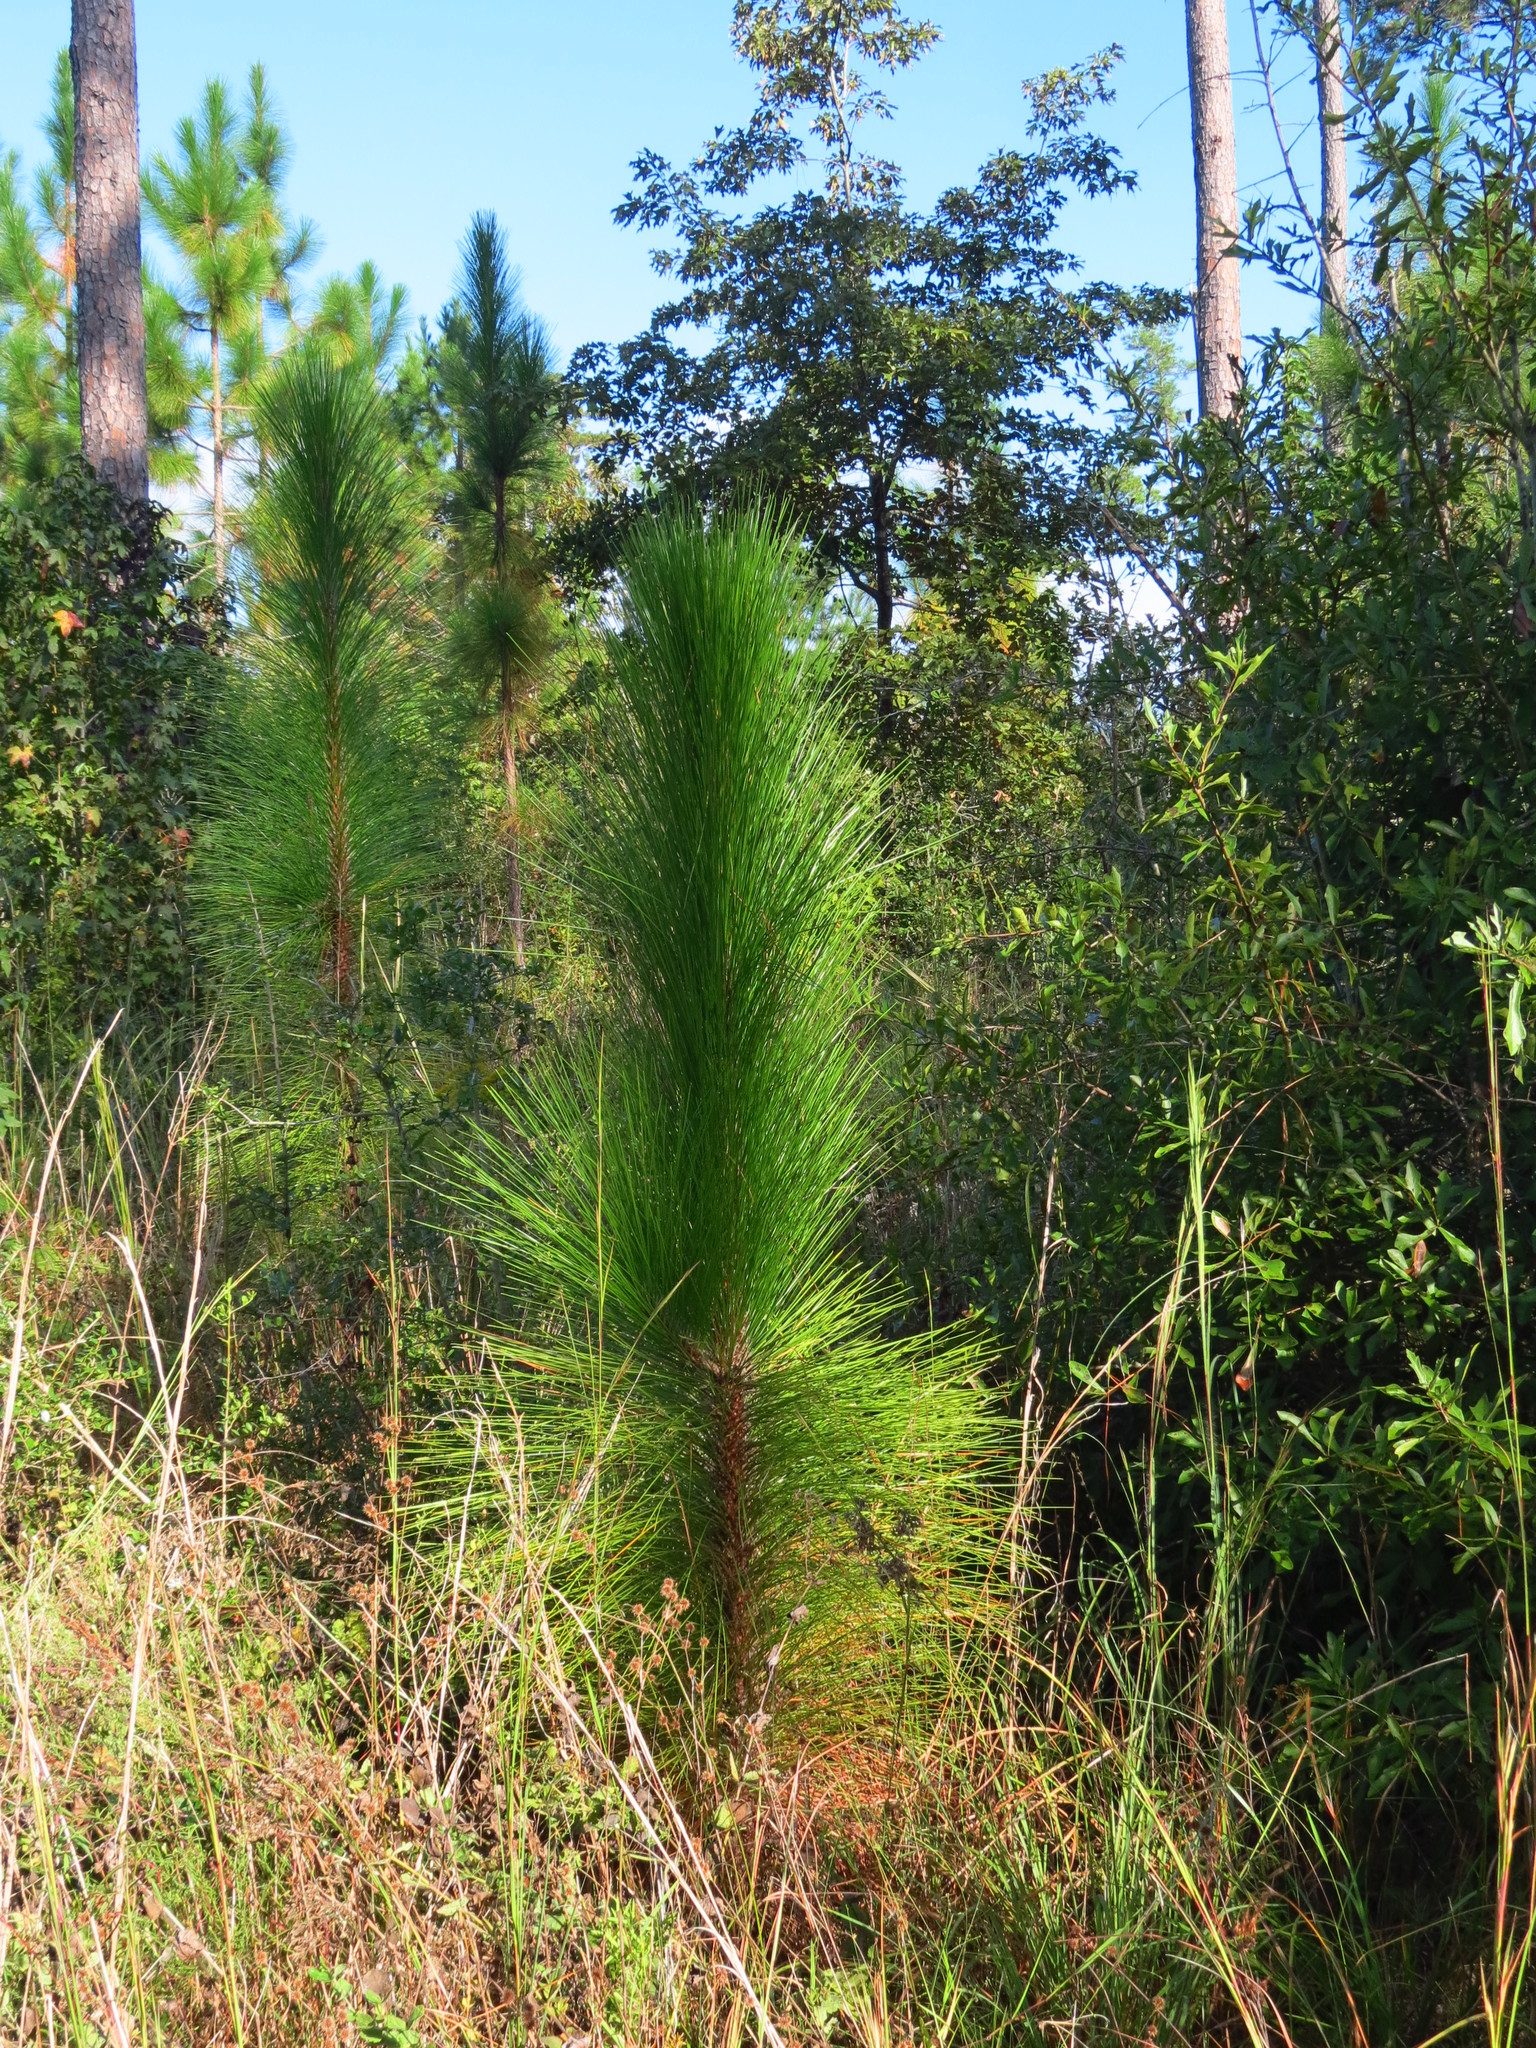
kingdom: Plantae
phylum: Tracheophyta
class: Pinopsida
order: Pinales
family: Pinaceae
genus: Pinus
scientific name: Pinus palustris
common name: Longleaf pine
